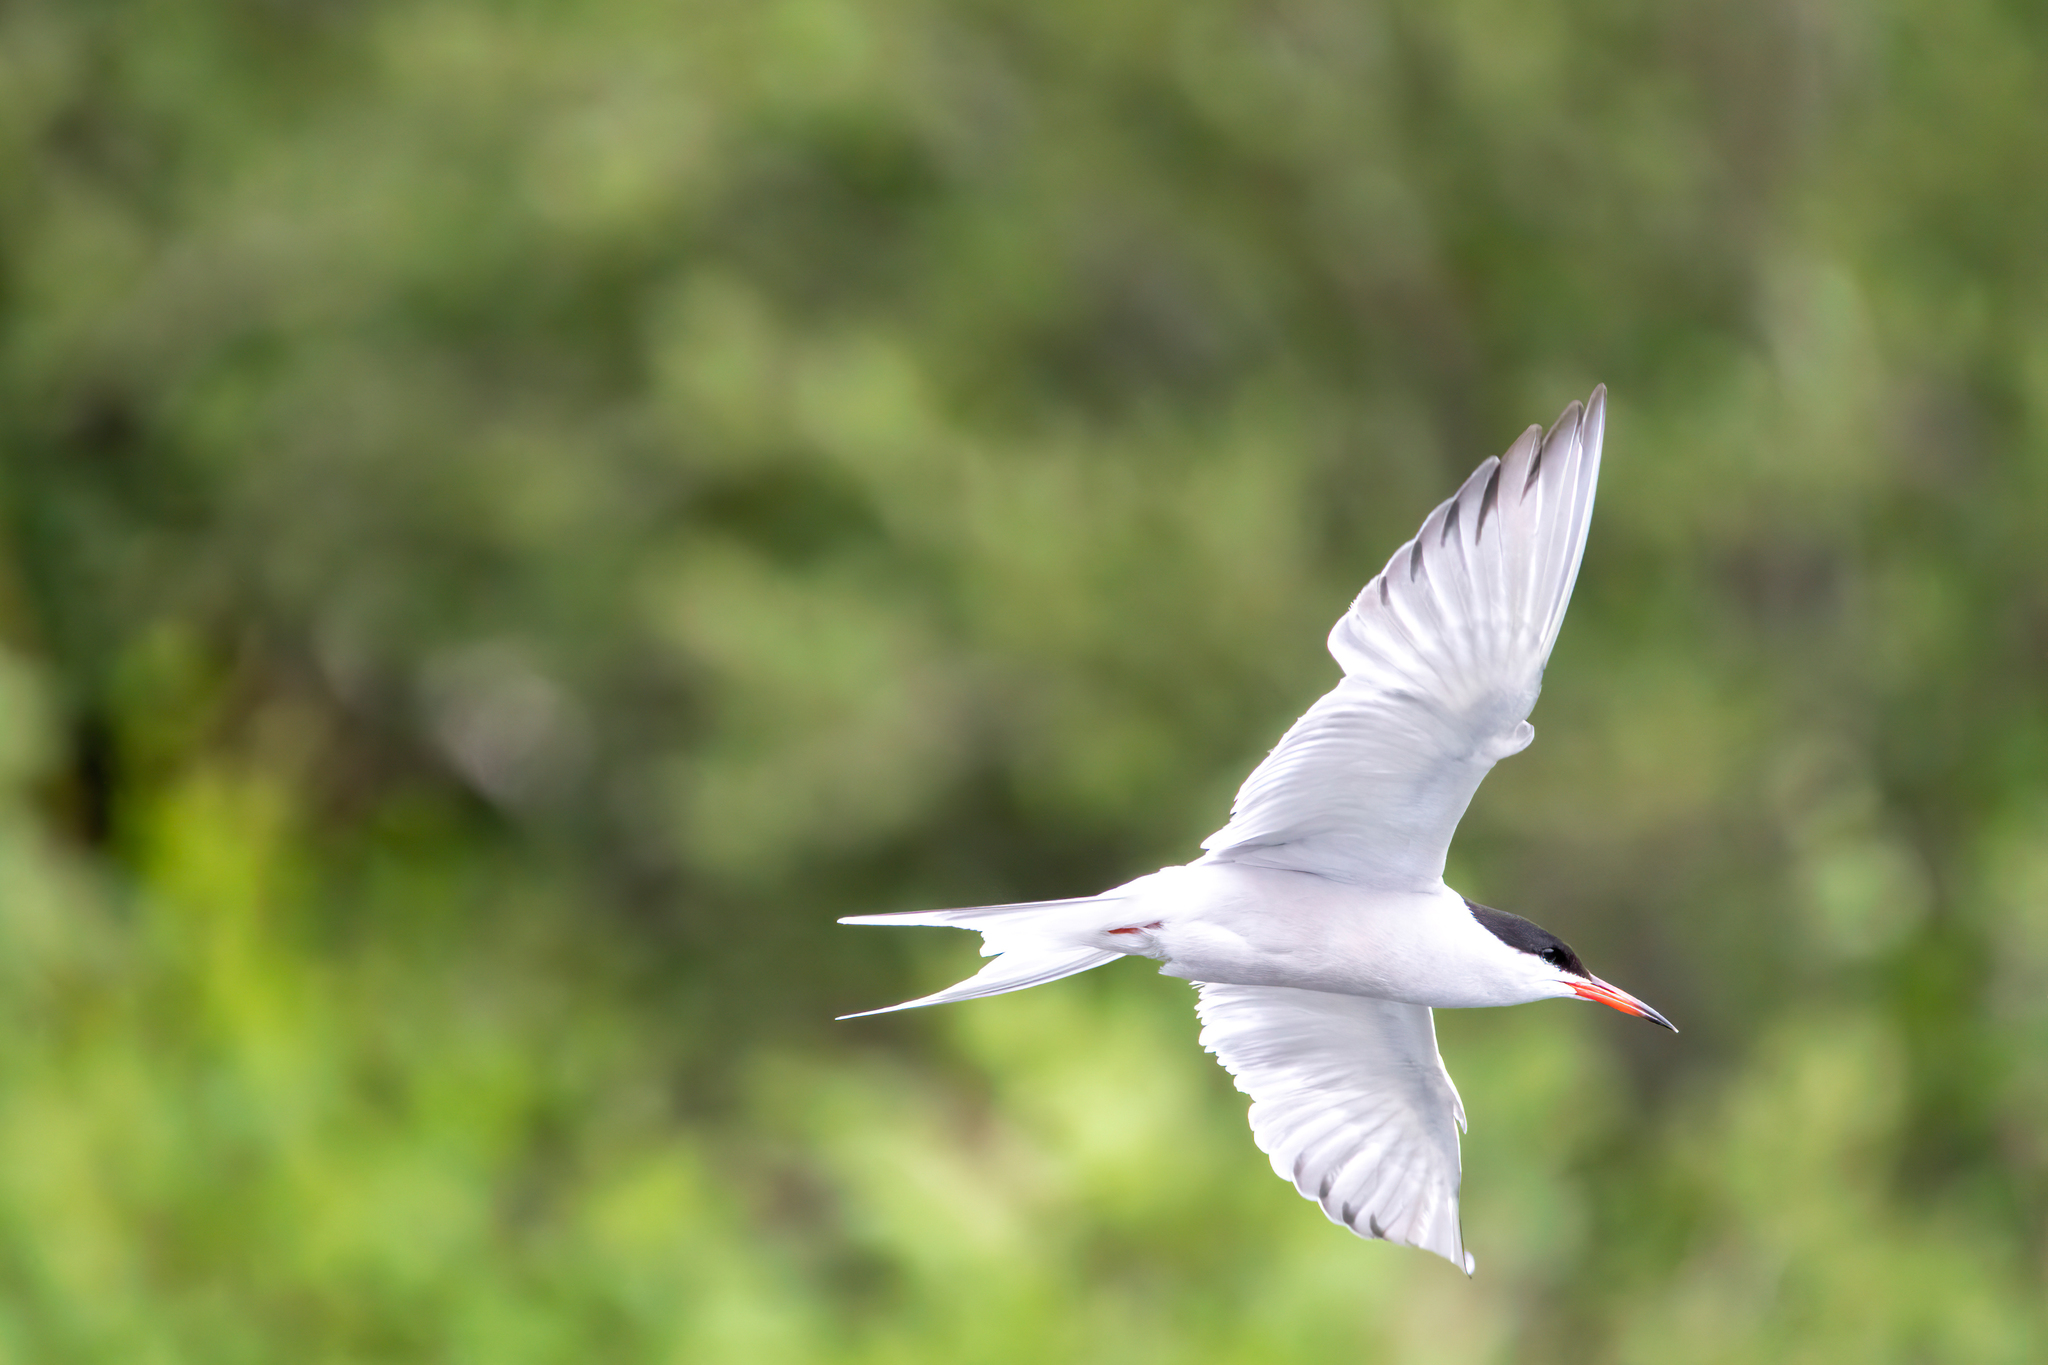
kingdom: Animalia
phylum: Chordata
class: Aves
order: Charadriiformes
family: Laridae
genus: Sterna
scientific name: Sterna hirundo
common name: Common tern
